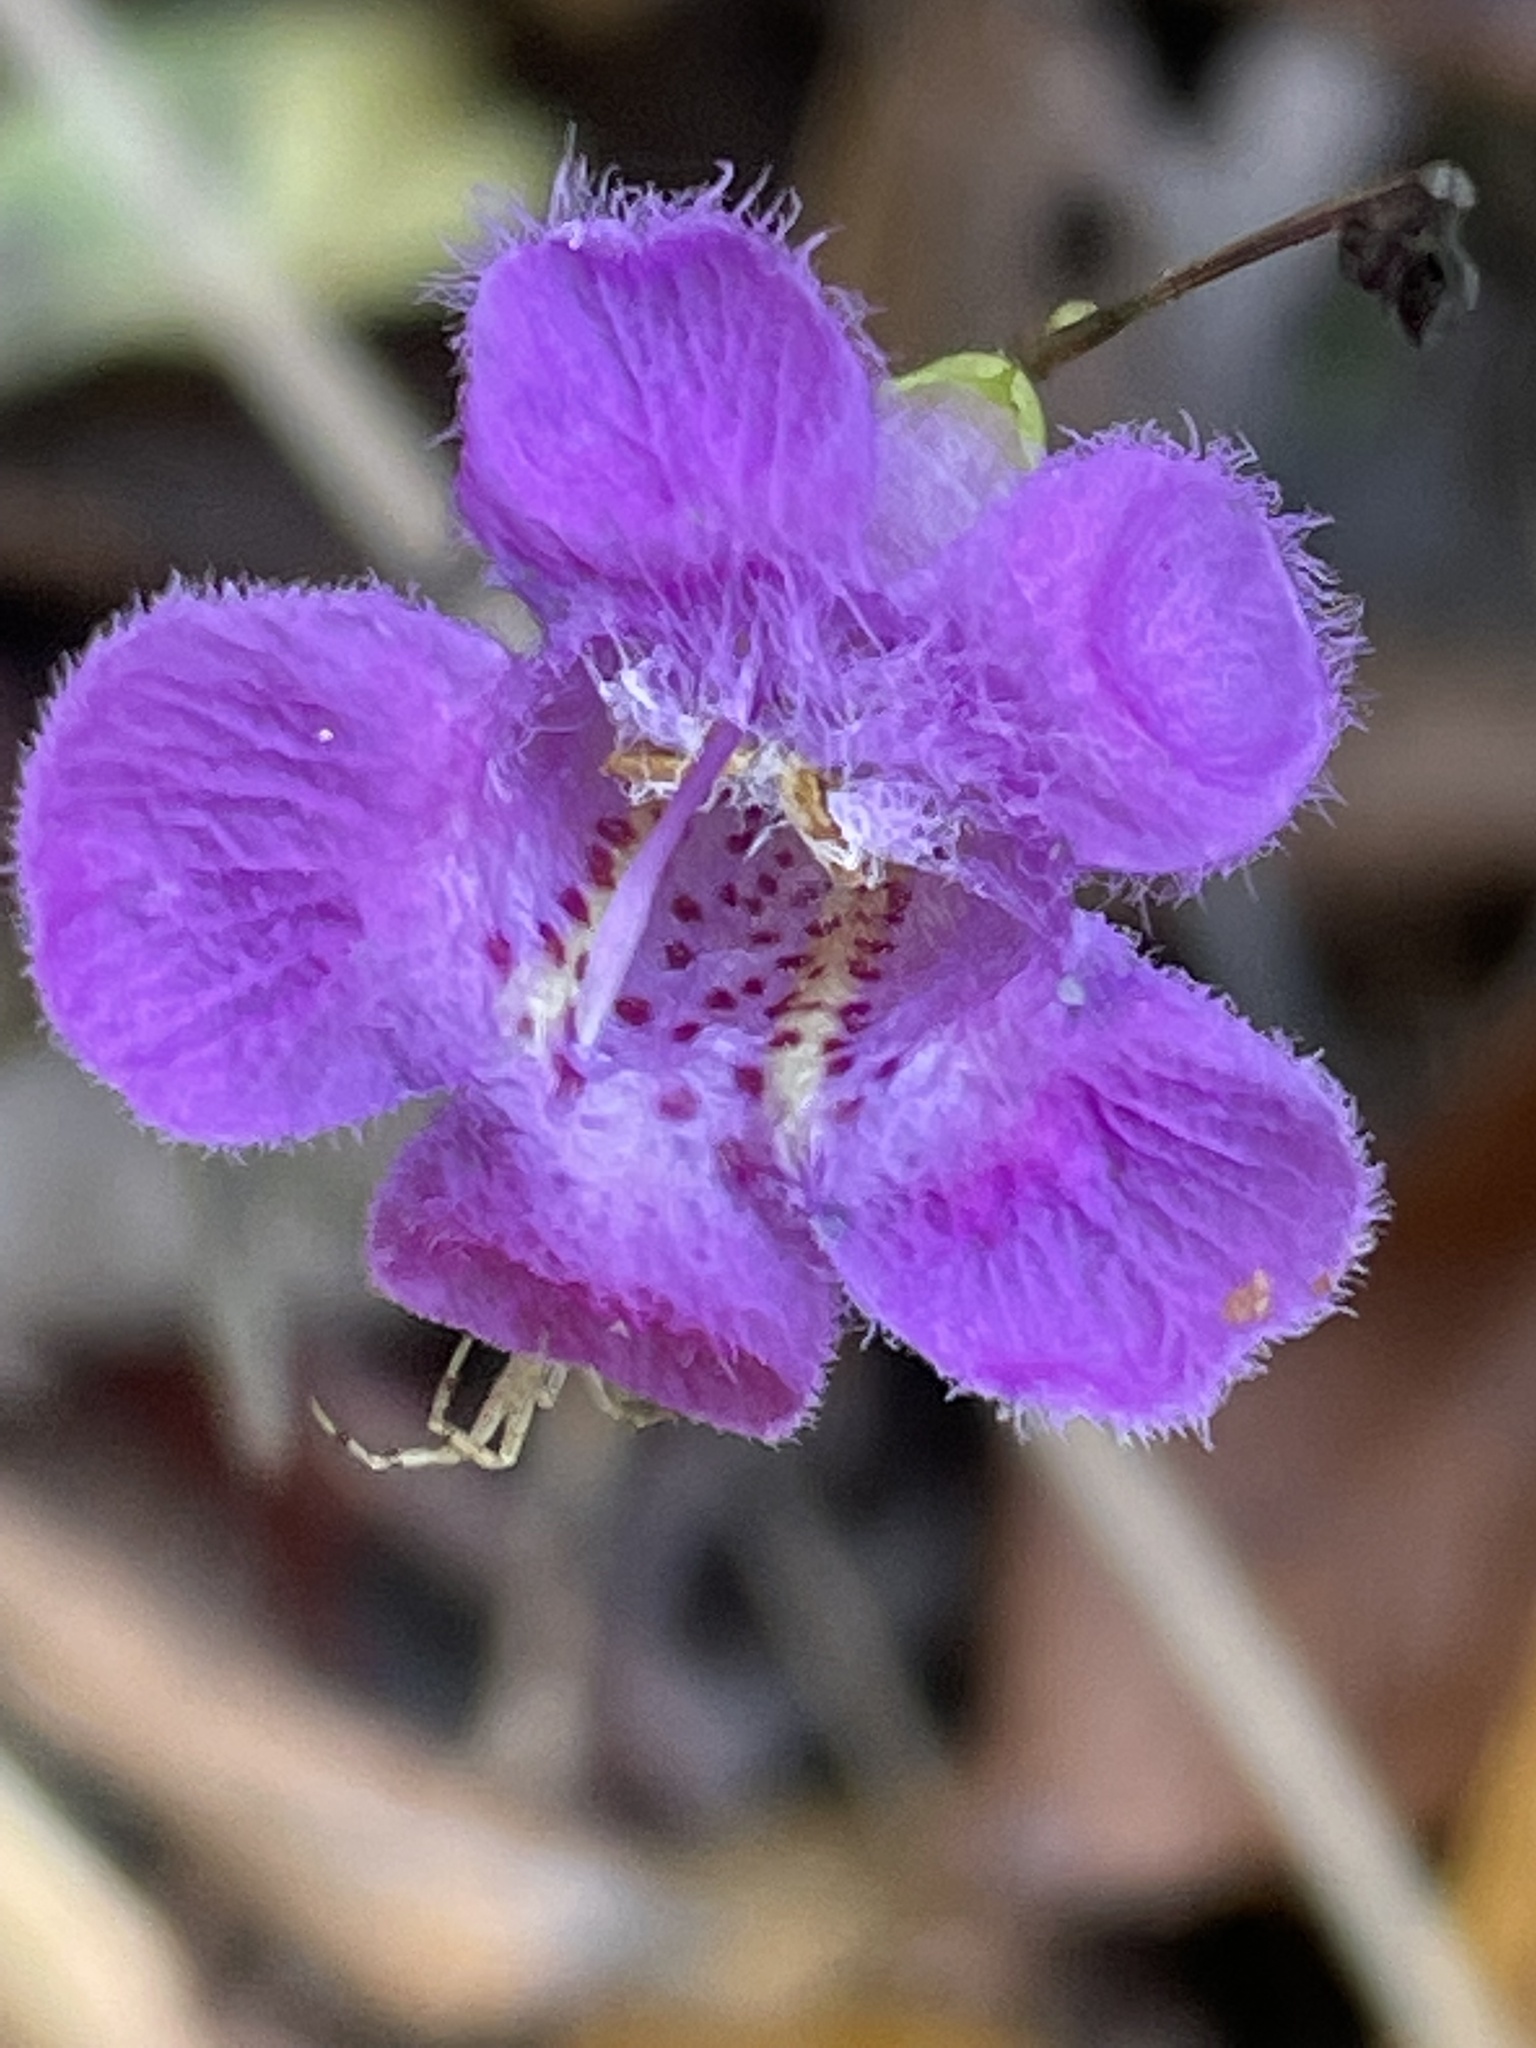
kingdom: Plantae
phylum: Tracheophyta
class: Magnoliopsida
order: Lamiales
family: Orobanchaceae
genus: Agalinis
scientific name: Agalinis purpurea
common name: Purple false foxglove
